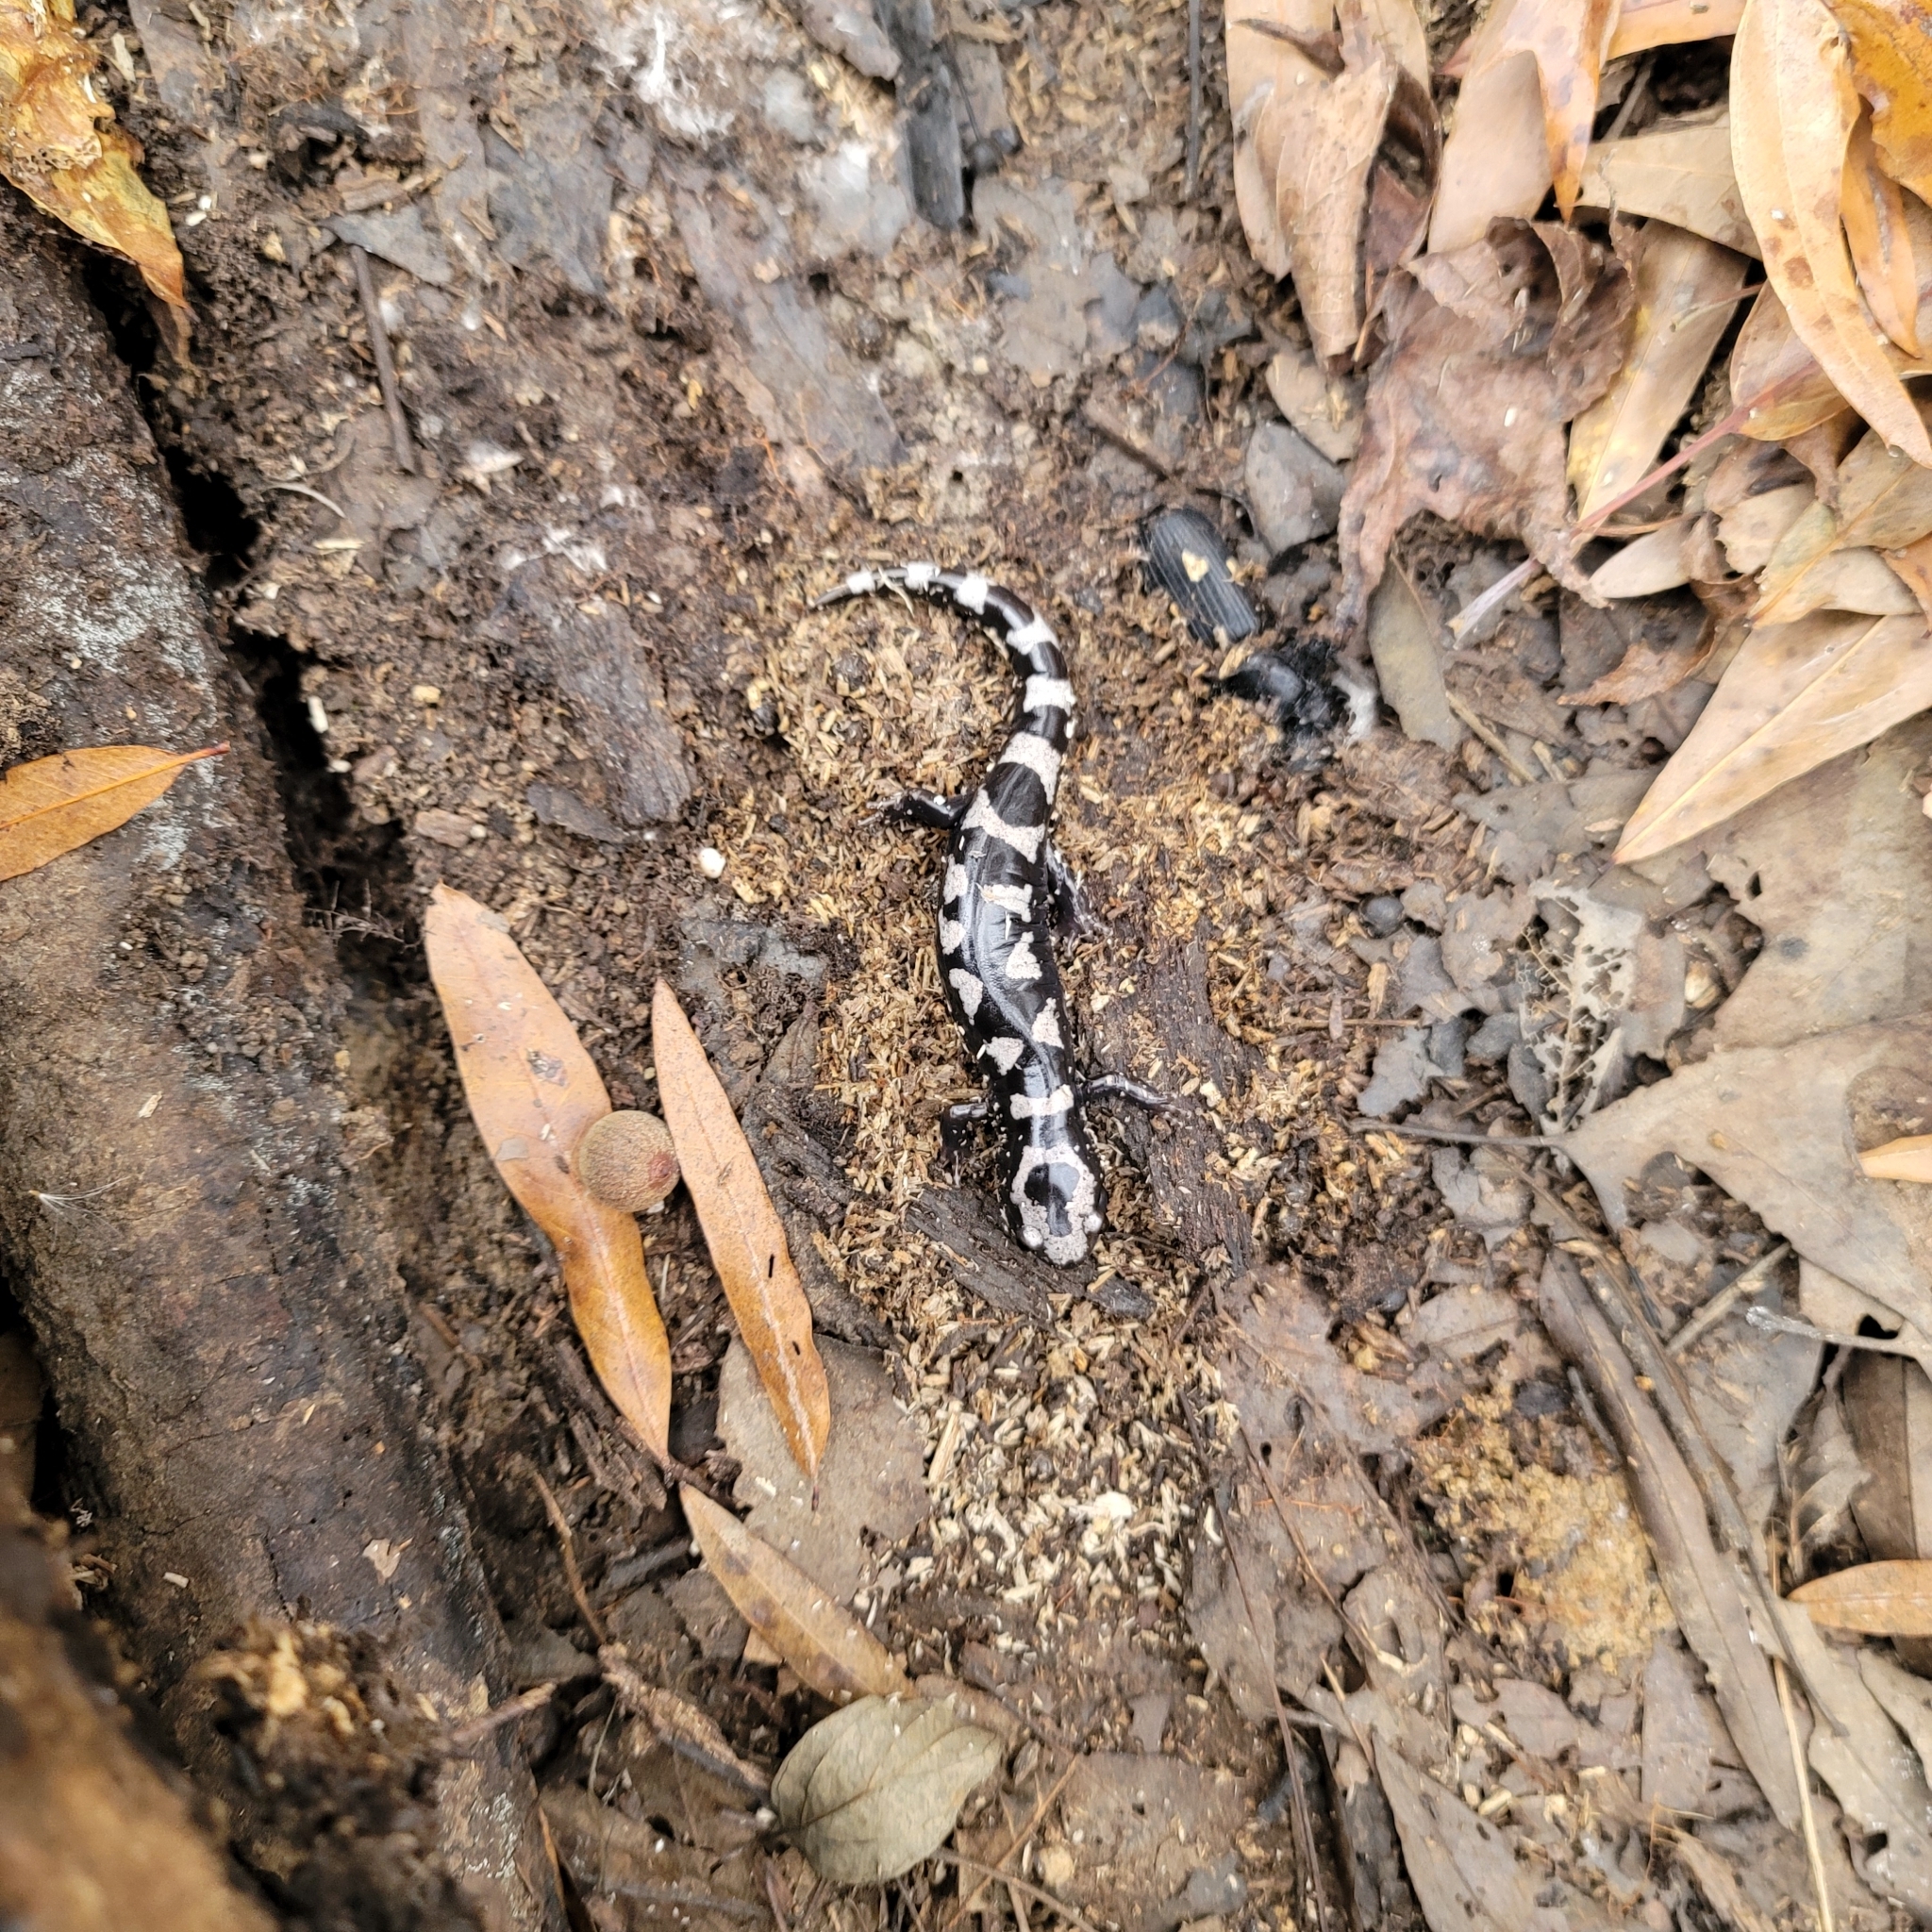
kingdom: Animalia
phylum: Chordata
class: Amphibia
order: Caudata
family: Ambystomatidae
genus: Ambystoma
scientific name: Ambystoma opacum
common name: Marbled salamander
